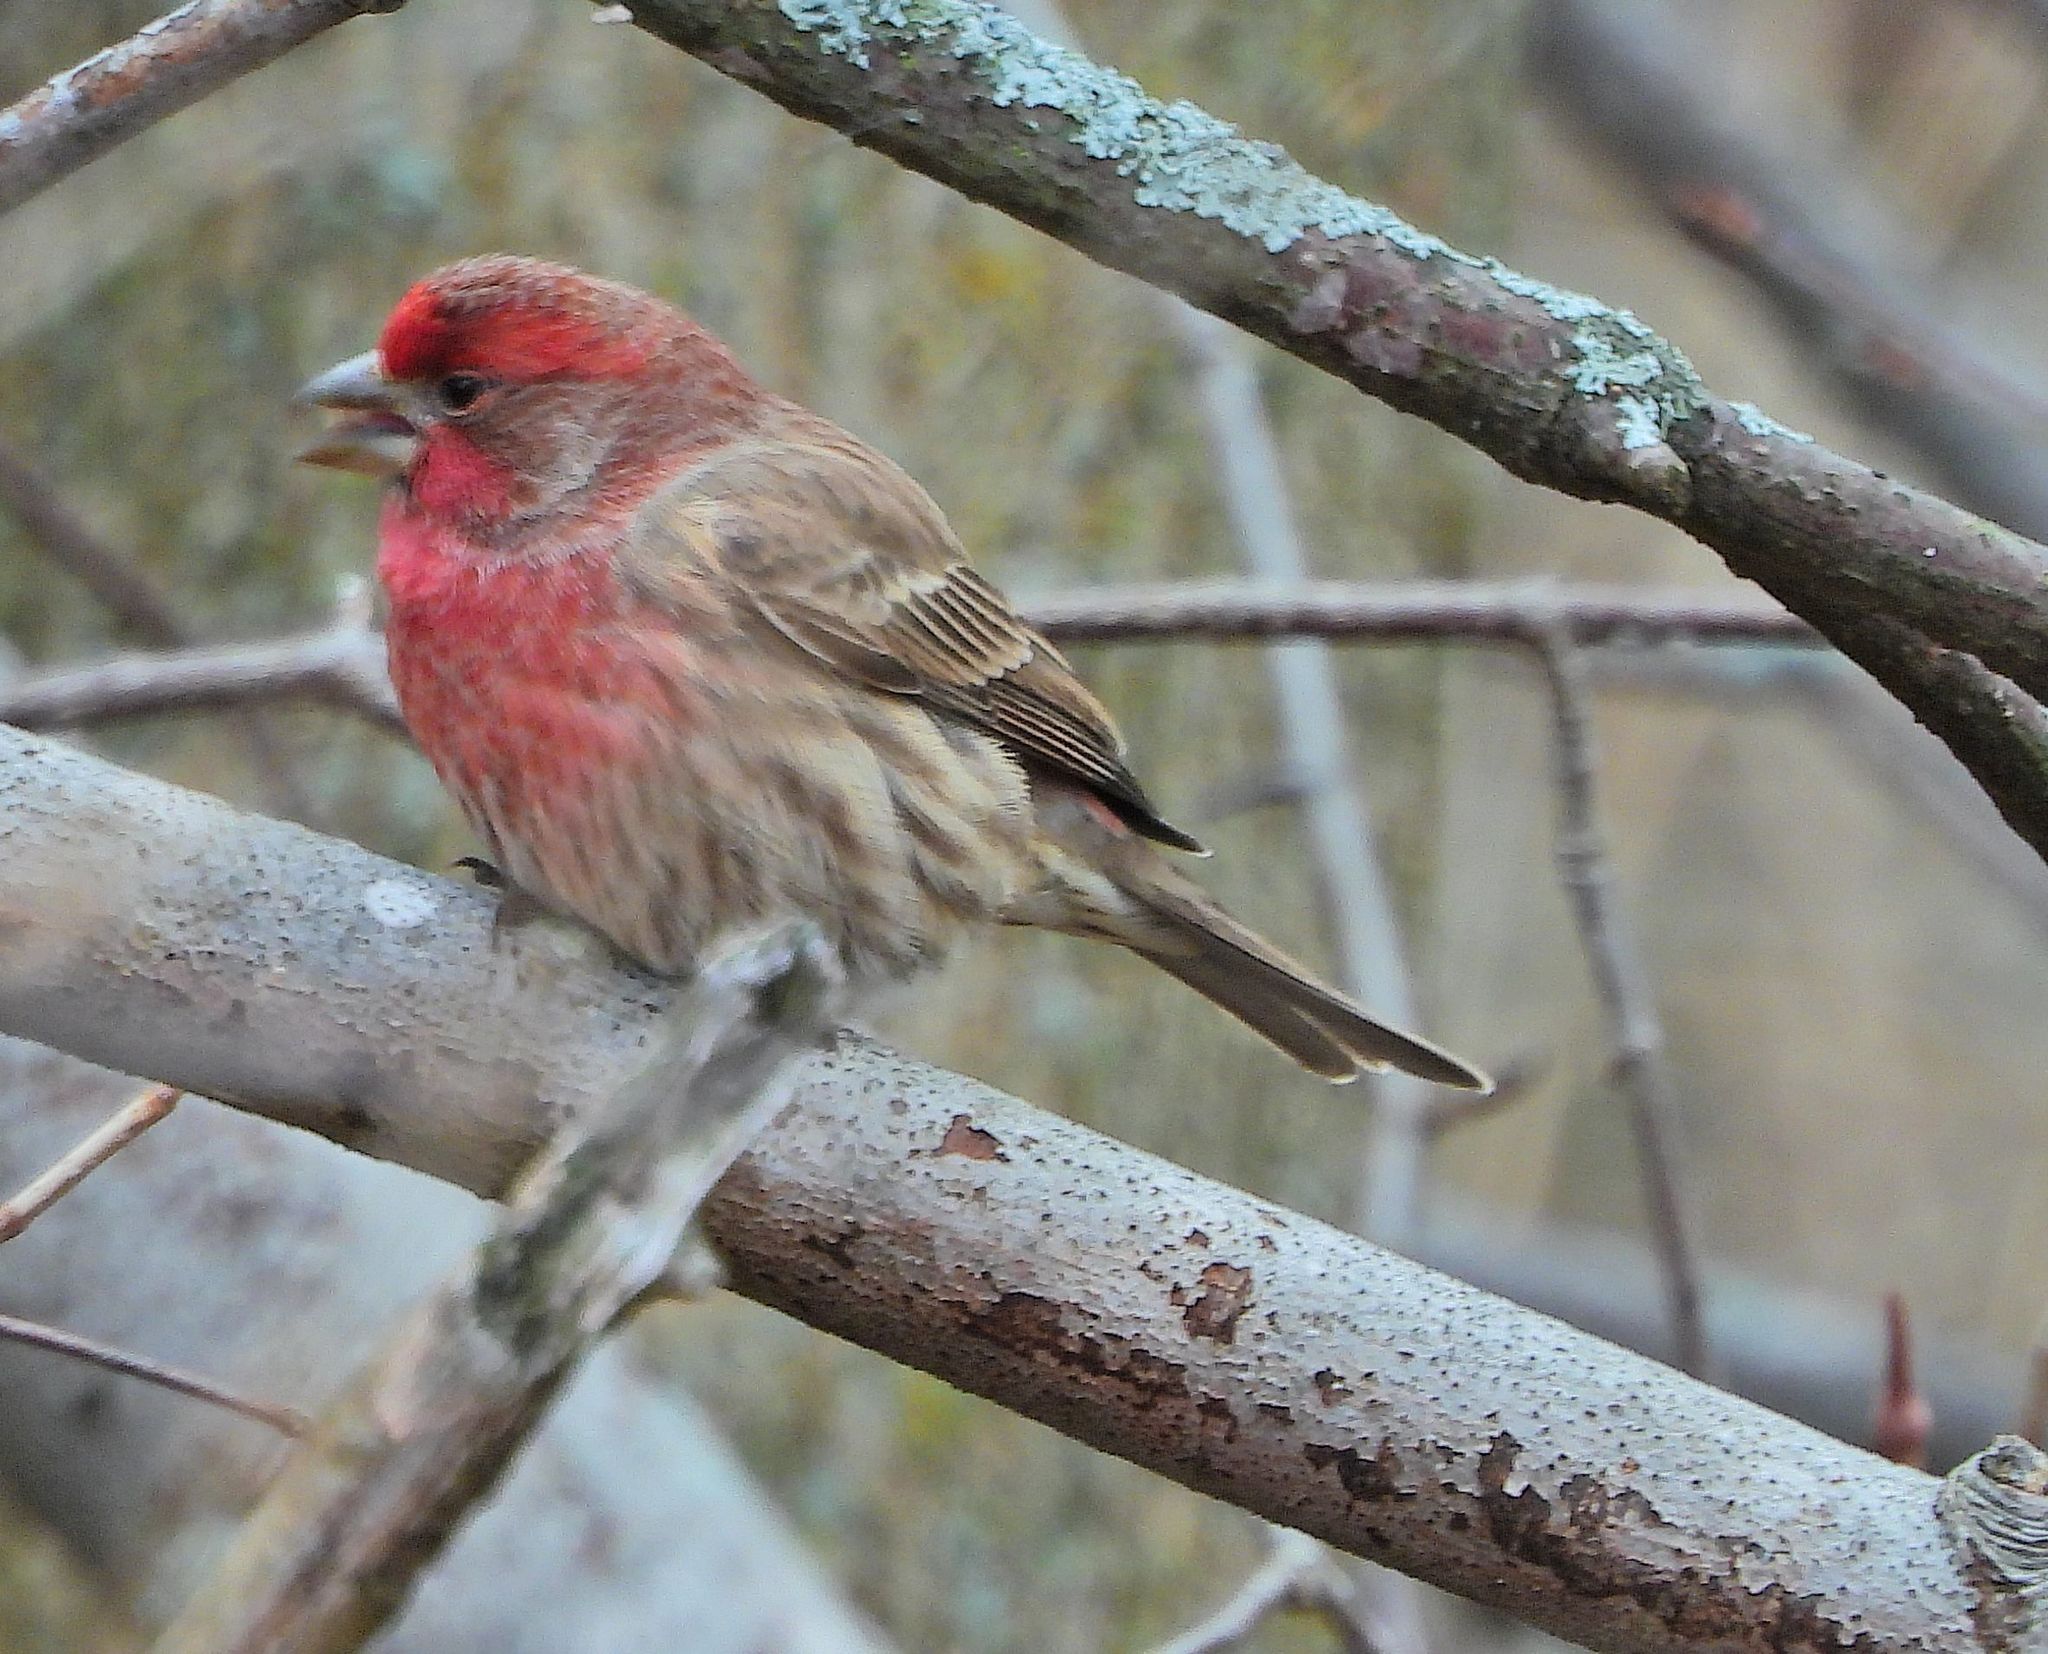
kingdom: Animalia
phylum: Chordata
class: Aves
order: Passeriformes
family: Fringillidae
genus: Haemorhous
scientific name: Haemorhous mexicanus
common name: House finch
